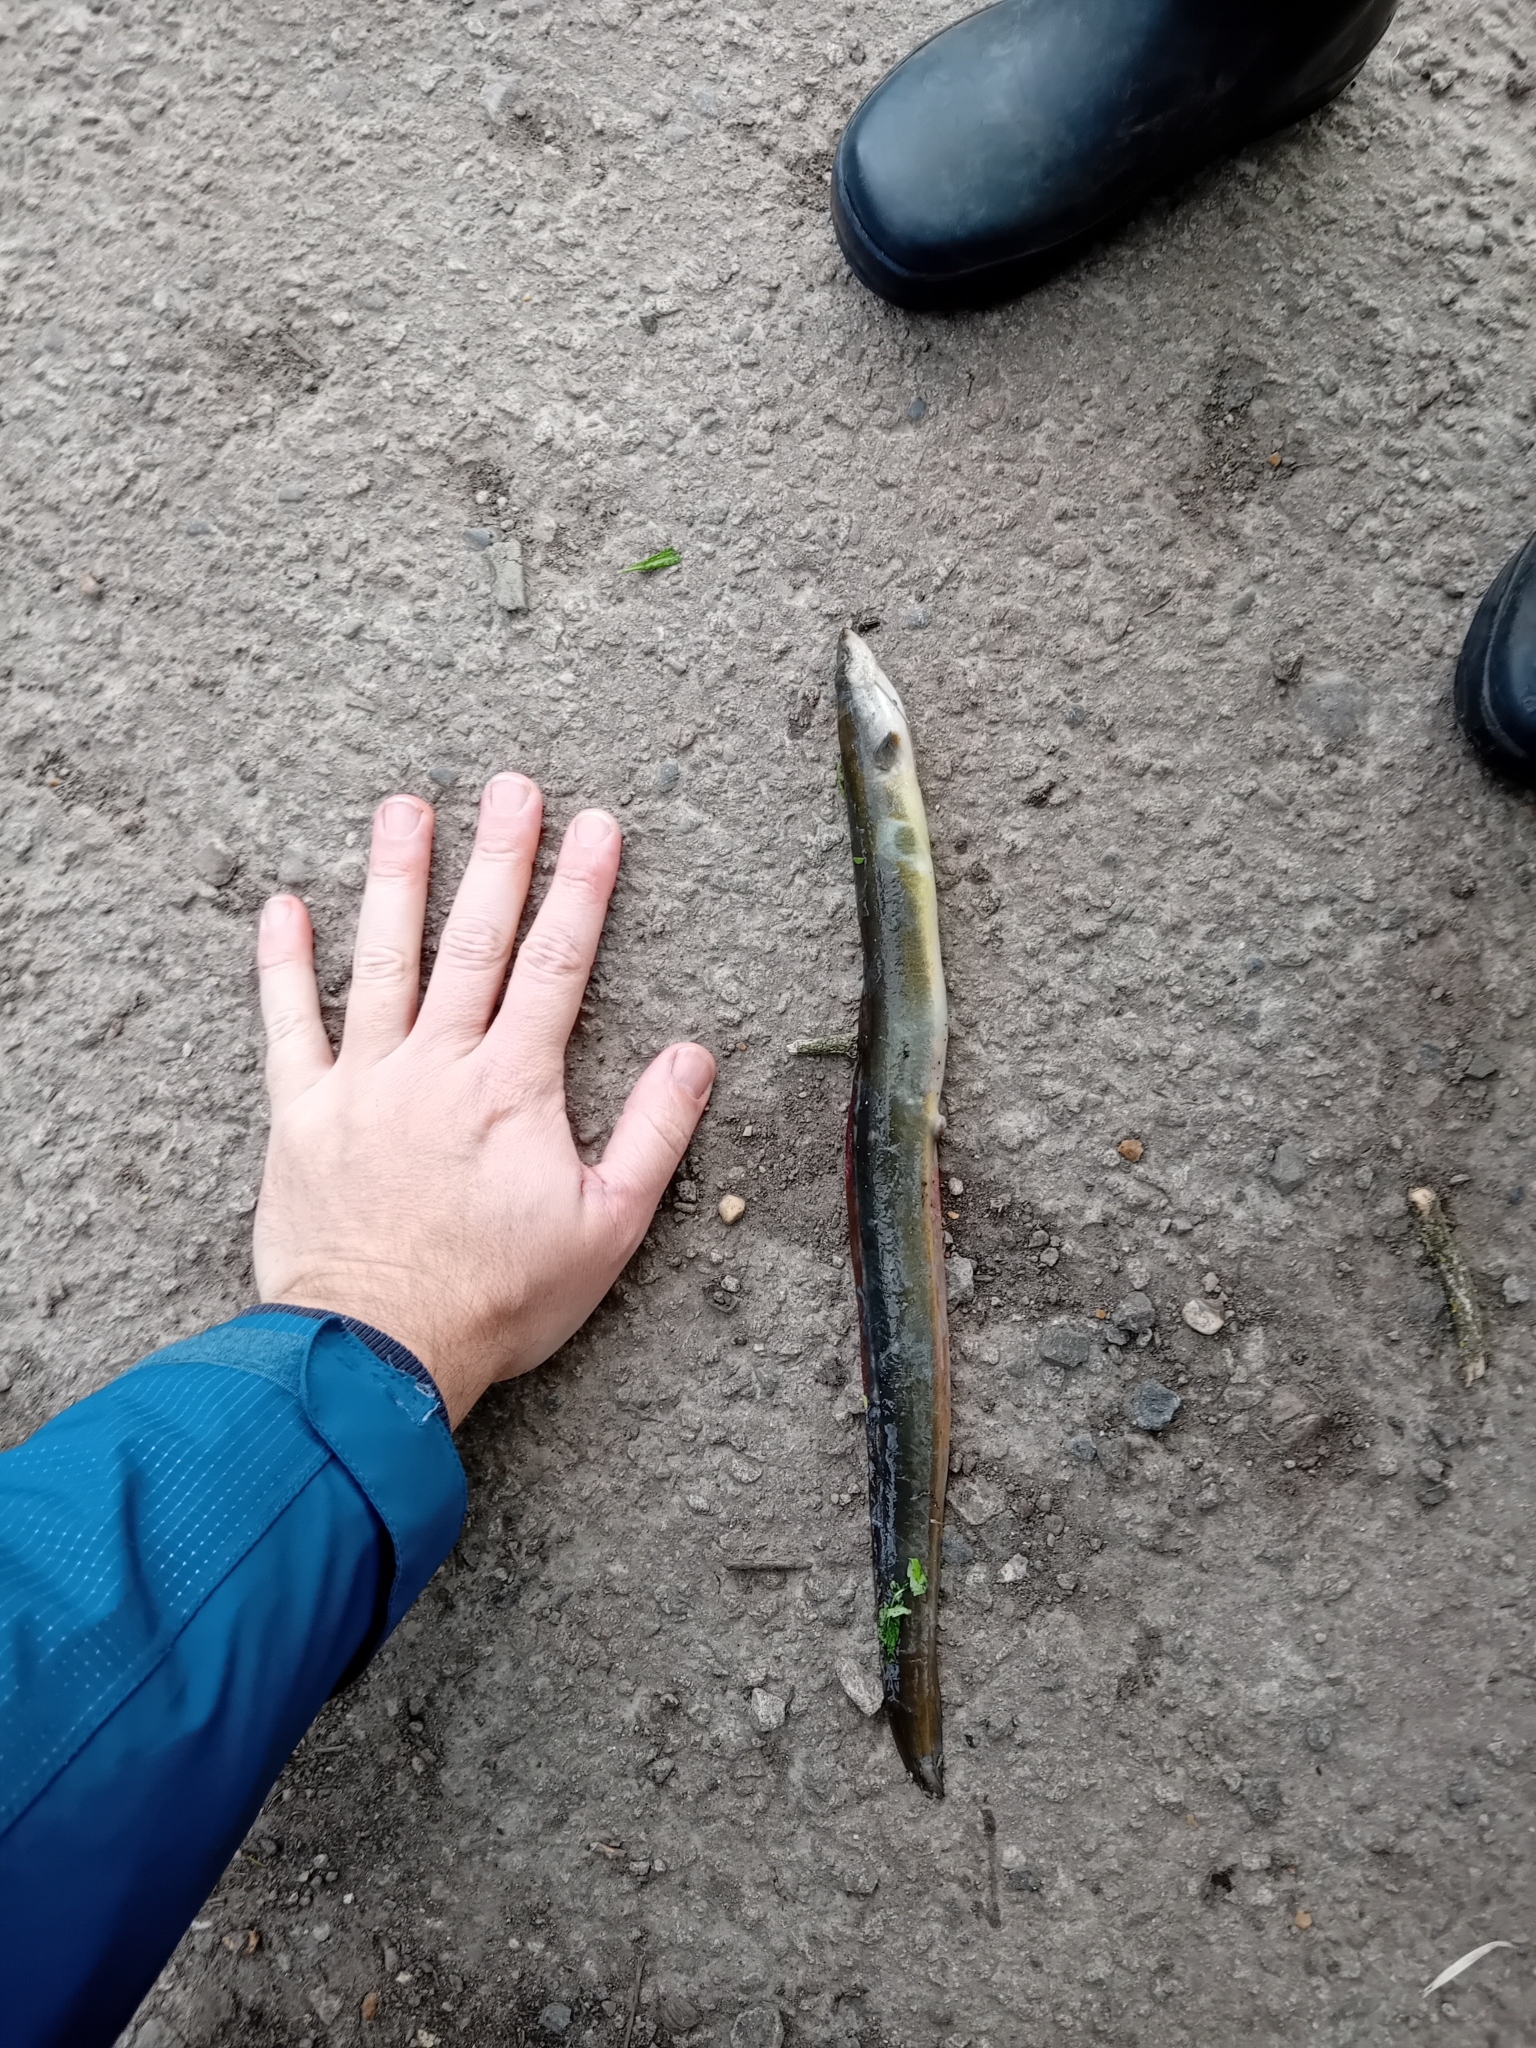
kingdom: Animalia
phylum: Chordata
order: Anguilliformes
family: Anguillidae
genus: Anguilla
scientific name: Anguilla anguilla
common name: European eel
